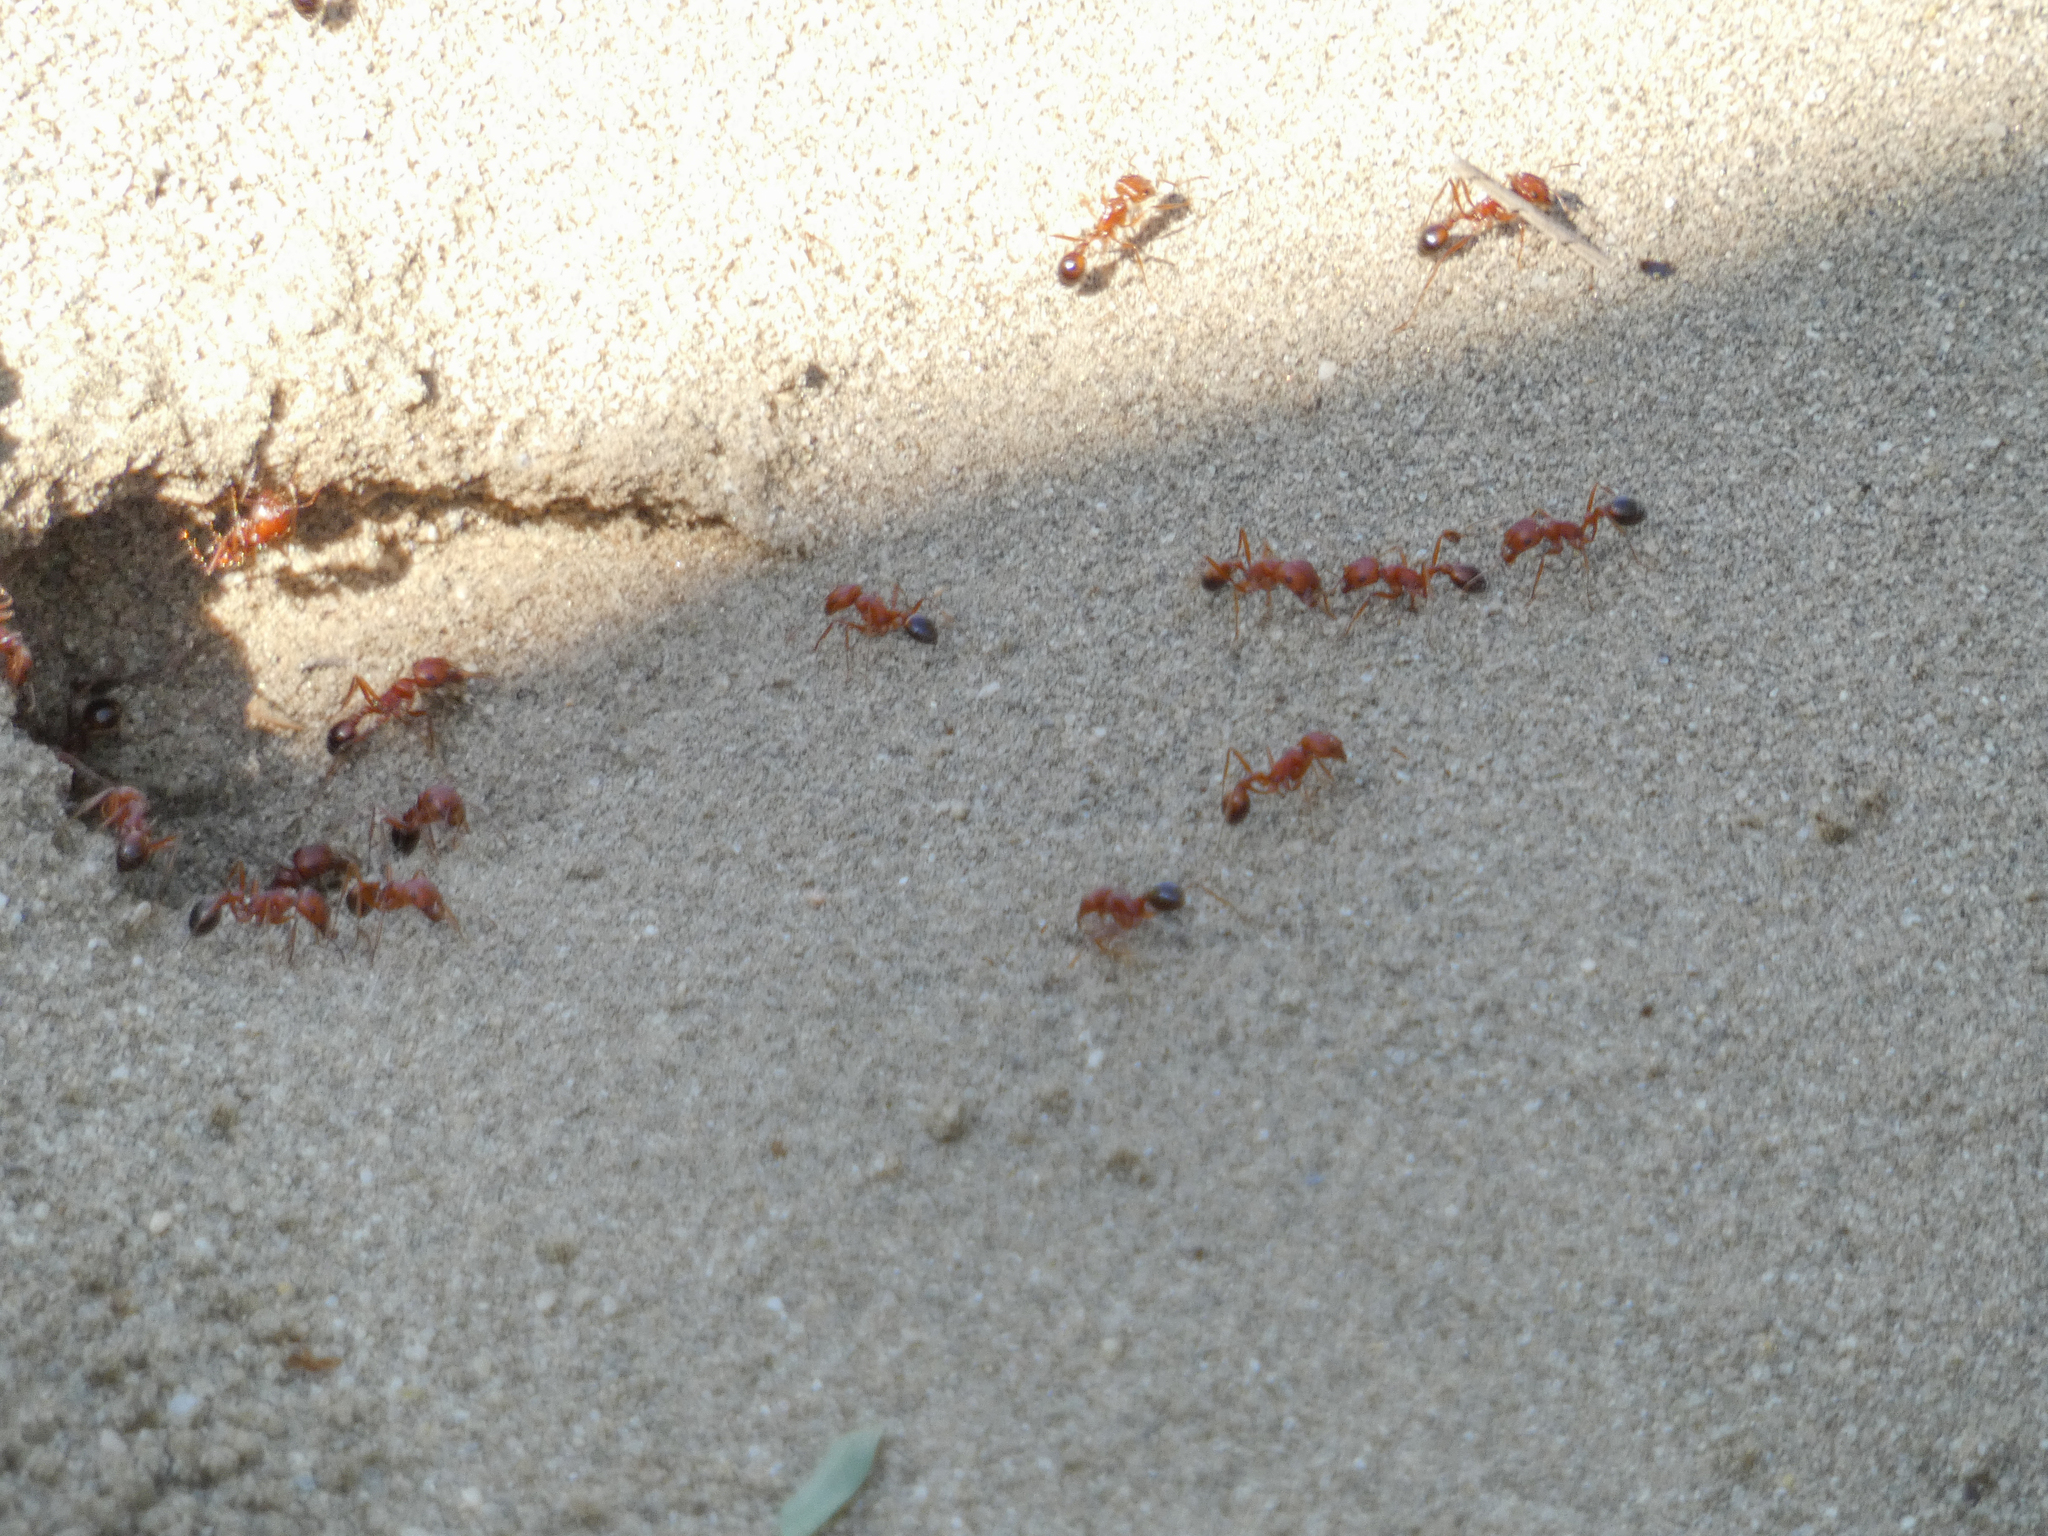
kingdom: Animalia
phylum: Arthropoda
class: Insecta
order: Hymenoptera
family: Formicidae
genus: Pogonomyrmex
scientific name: Pogonomyrmex californicus
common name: California harvester ant
